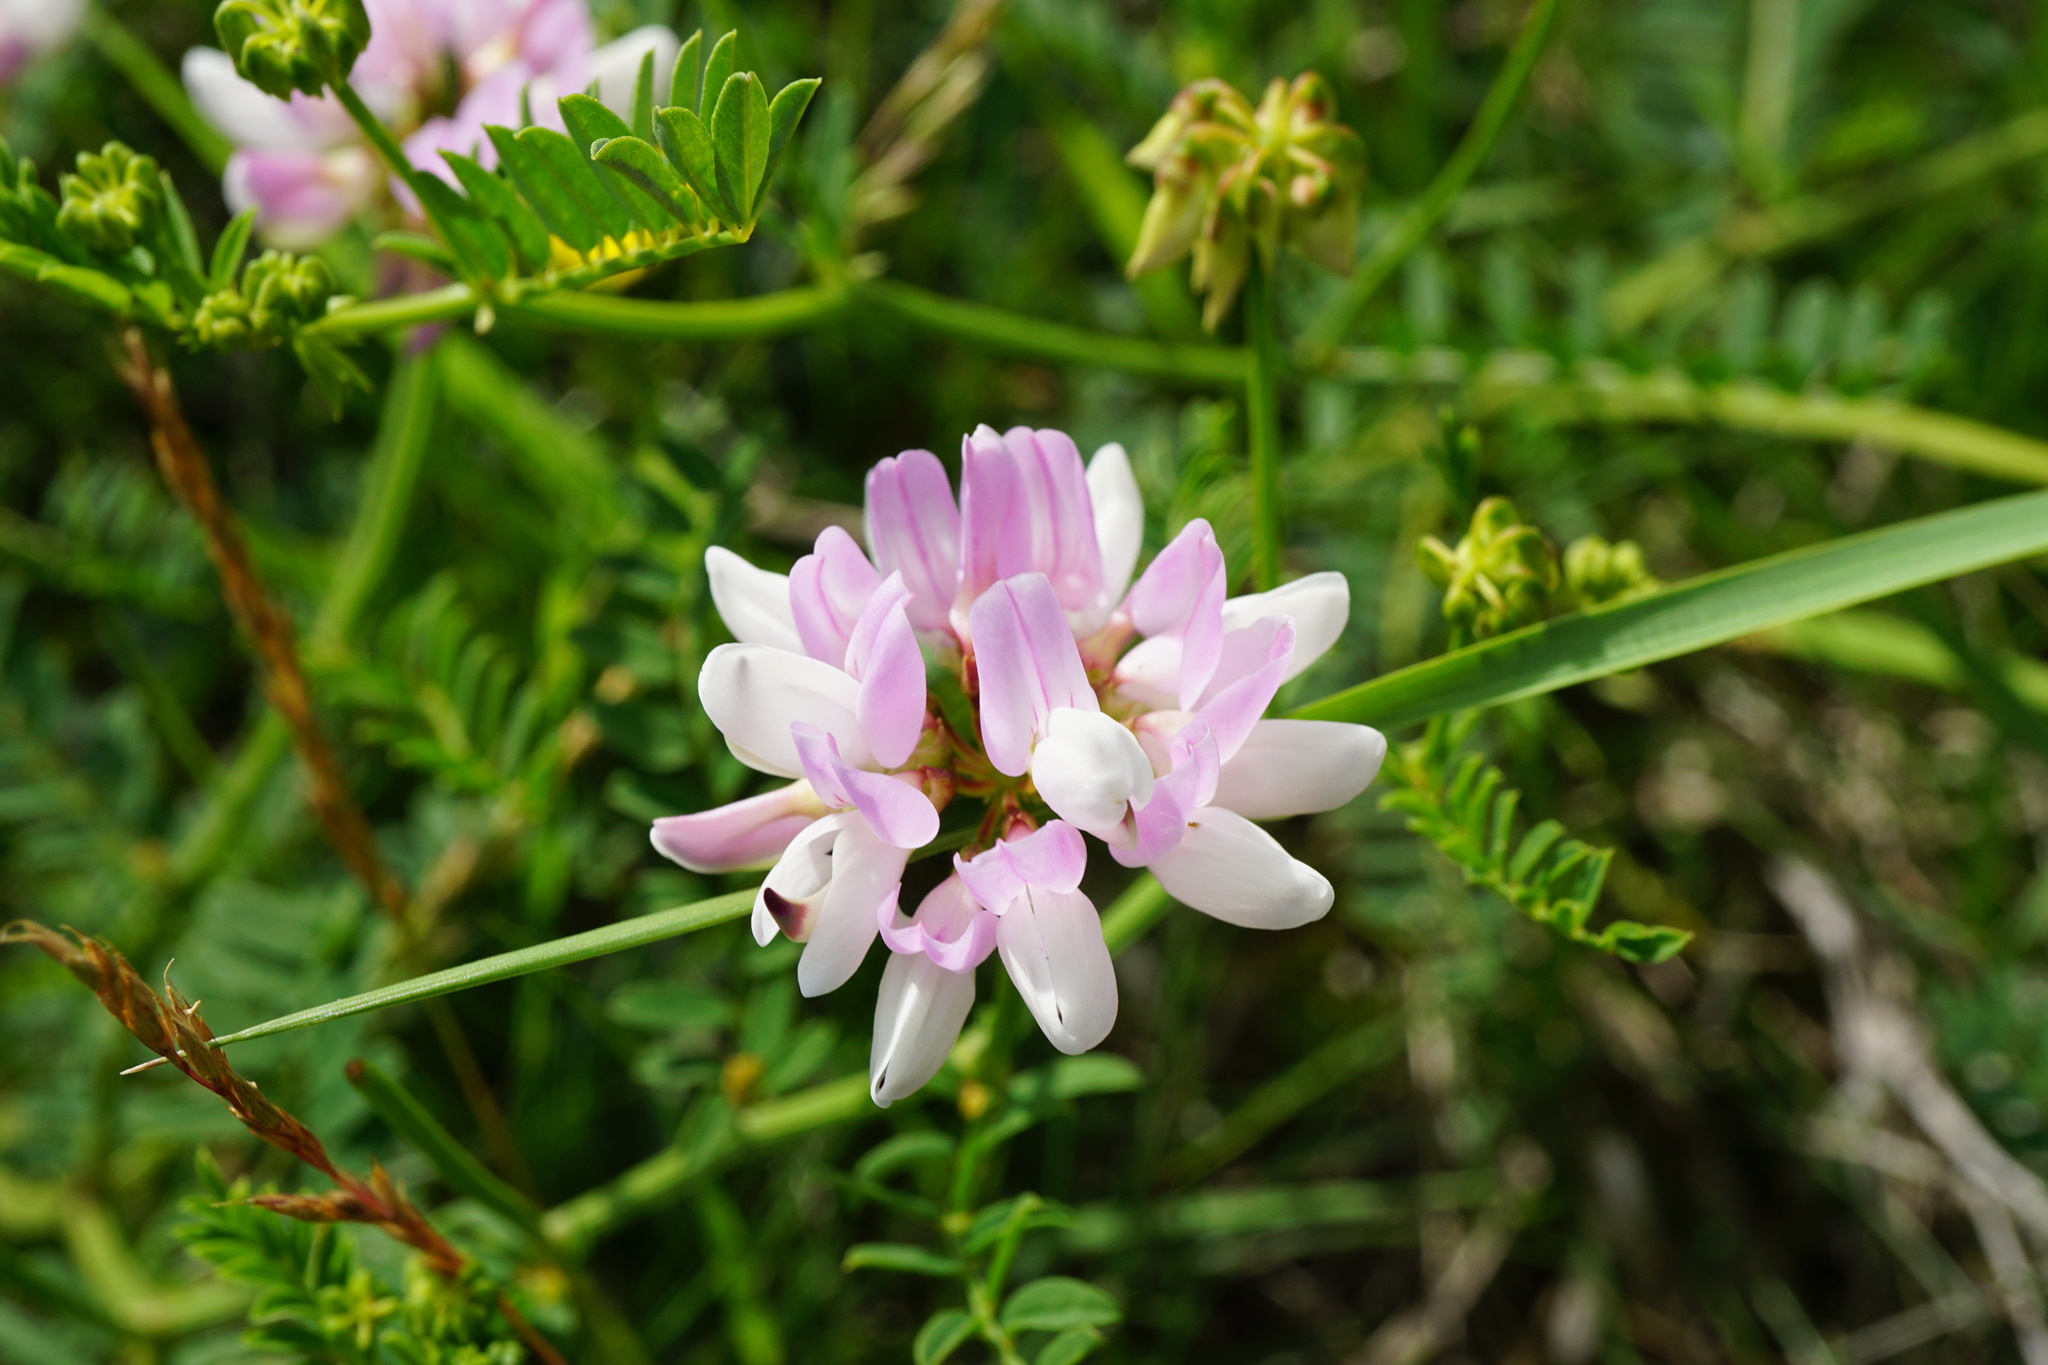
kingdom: Plantae
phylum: Tracheophyta
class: Magnoliopsida
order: Fabales
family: Fabaceae
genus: Coronilla
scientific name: Coronilla varia
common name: Crownvetch
